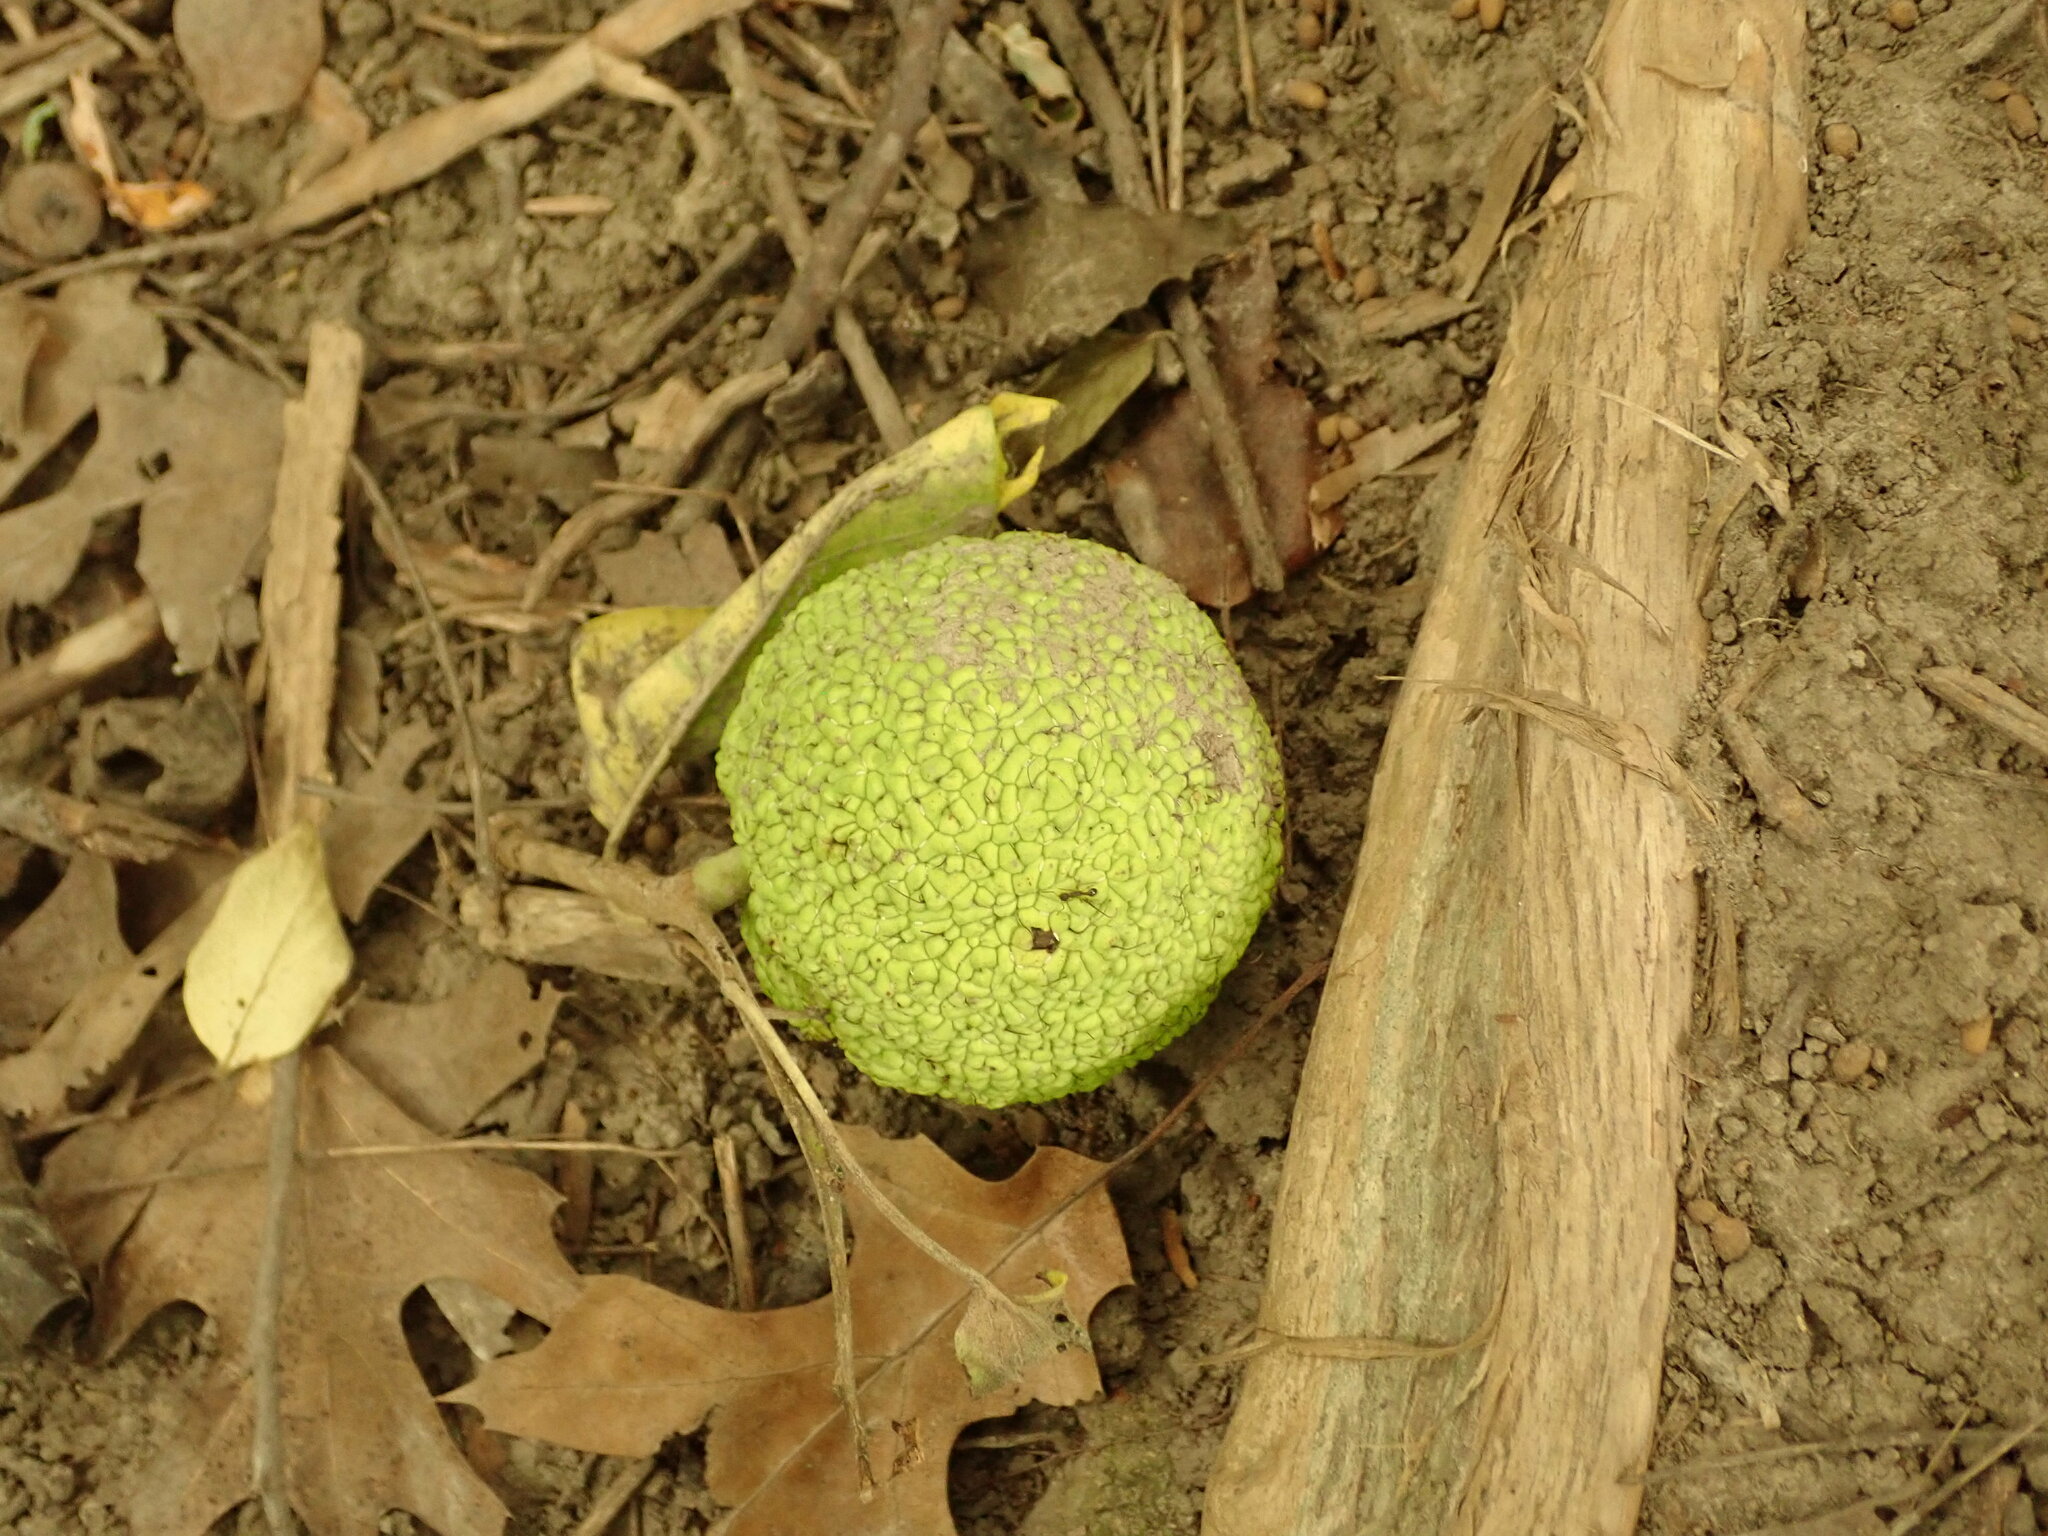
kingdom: Plantae
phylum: Tracheophyta
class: Magnoliopsida
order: Rosales
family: Moraceae
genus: Maclura
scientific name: Maclura pomifera
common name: Osage-orange
